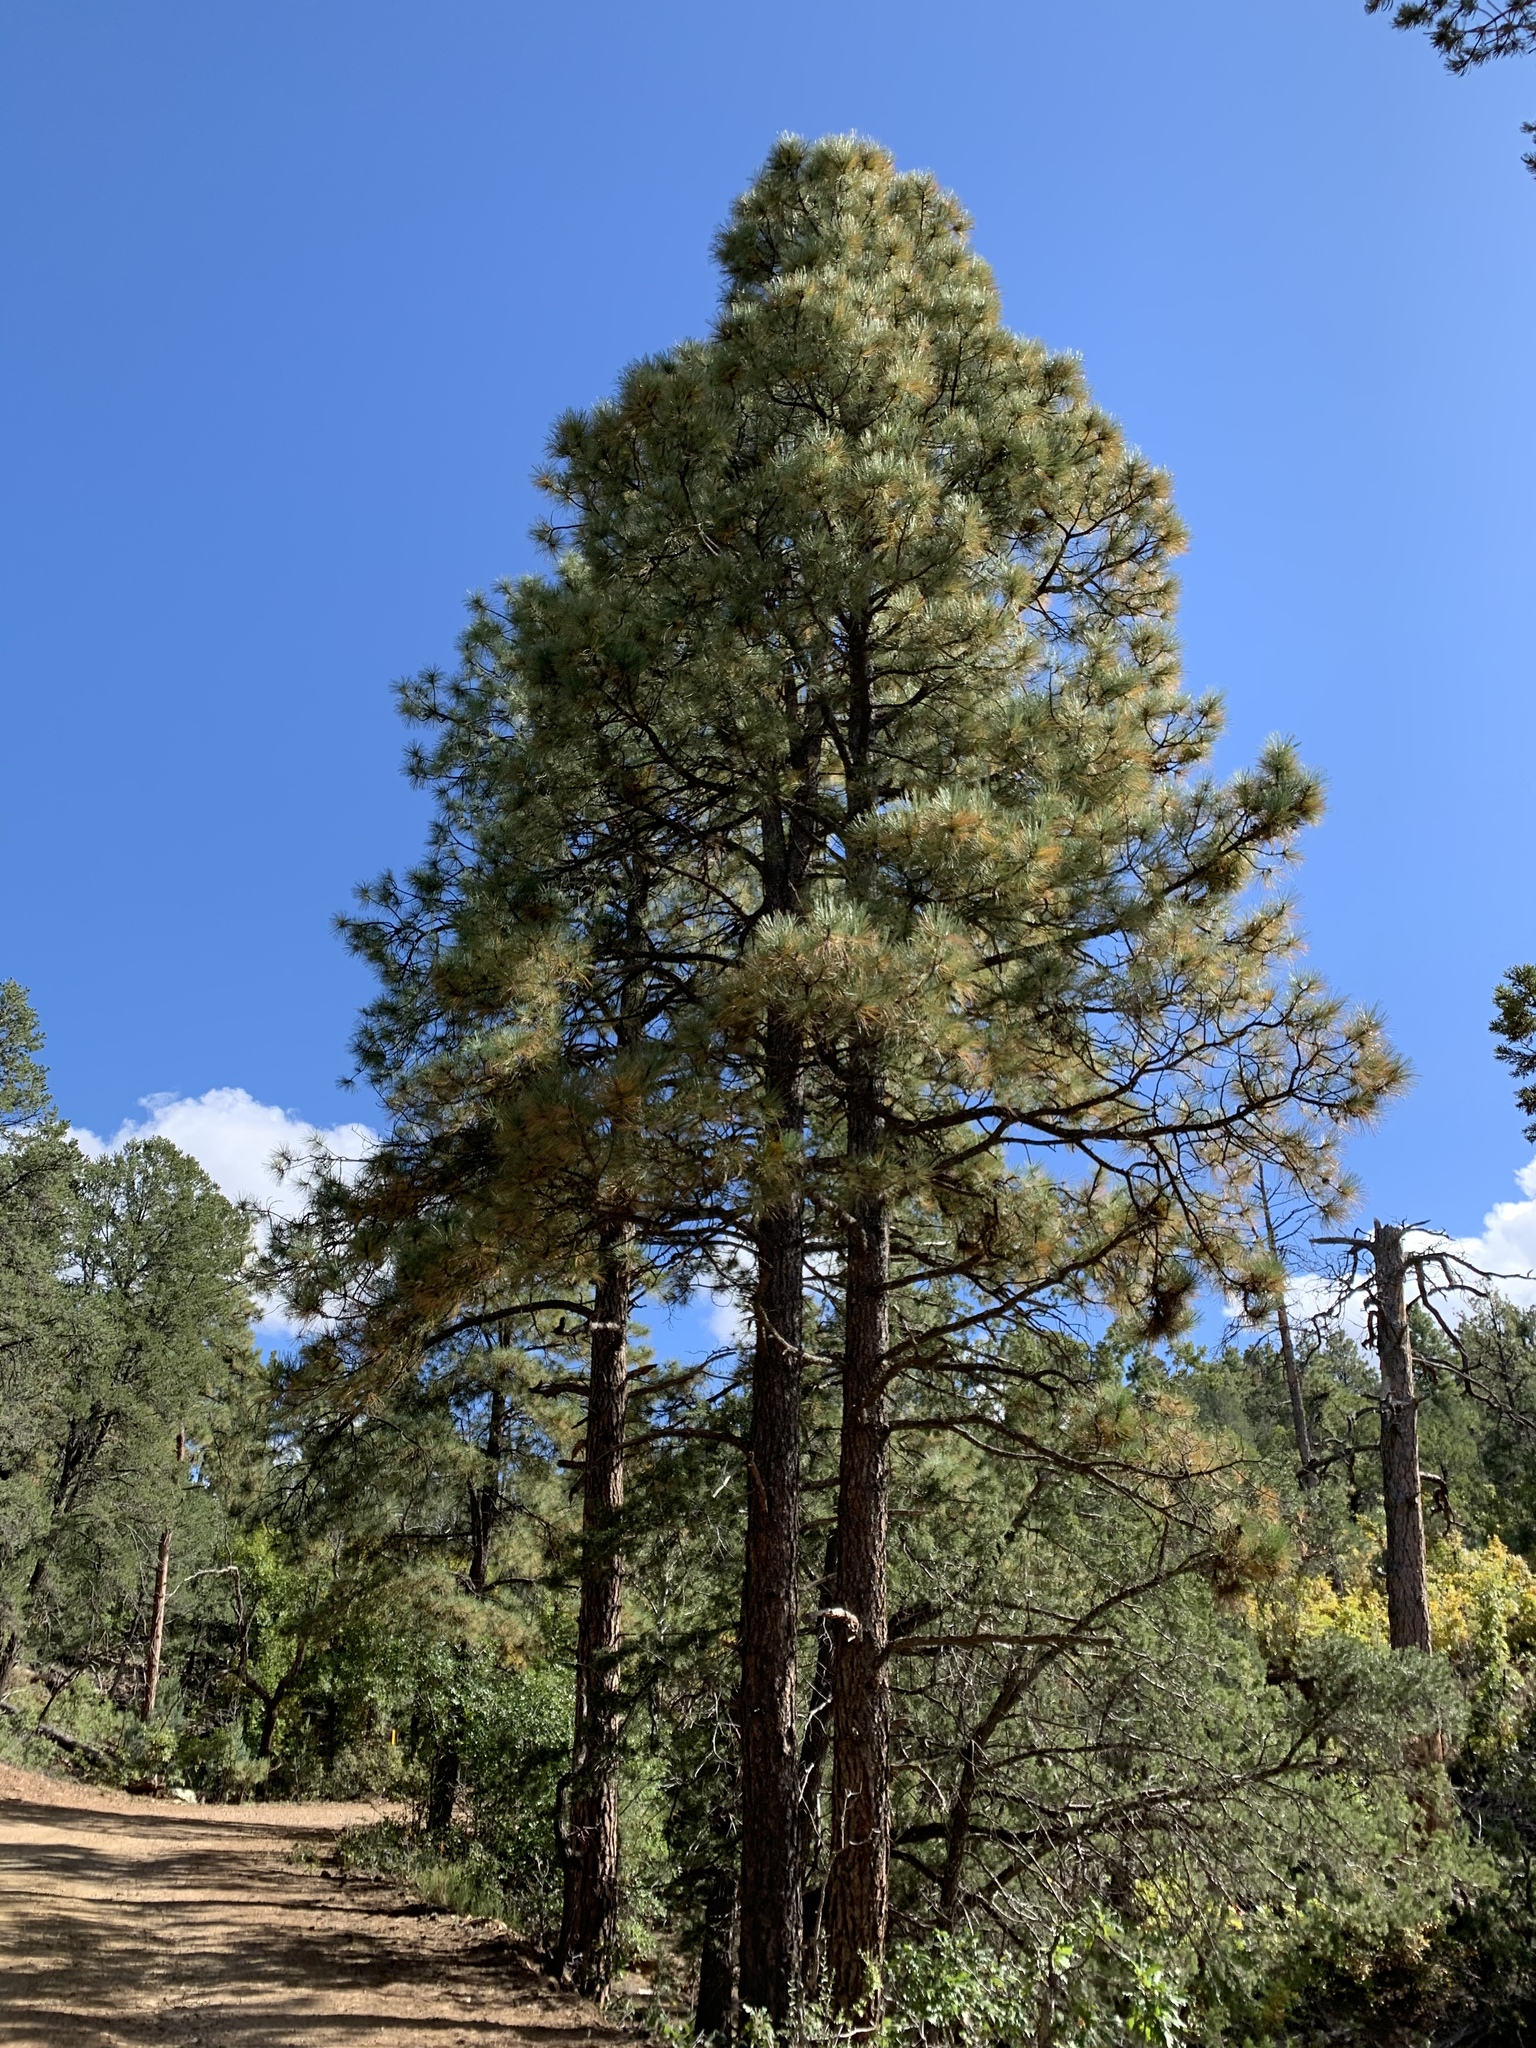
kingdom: Plantae
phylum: Tracheophyta
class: Pinopsida
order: Pinales
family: Pinaceae
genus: Pinus
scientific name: Pinus ponderosa
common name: Western yellow-pine
